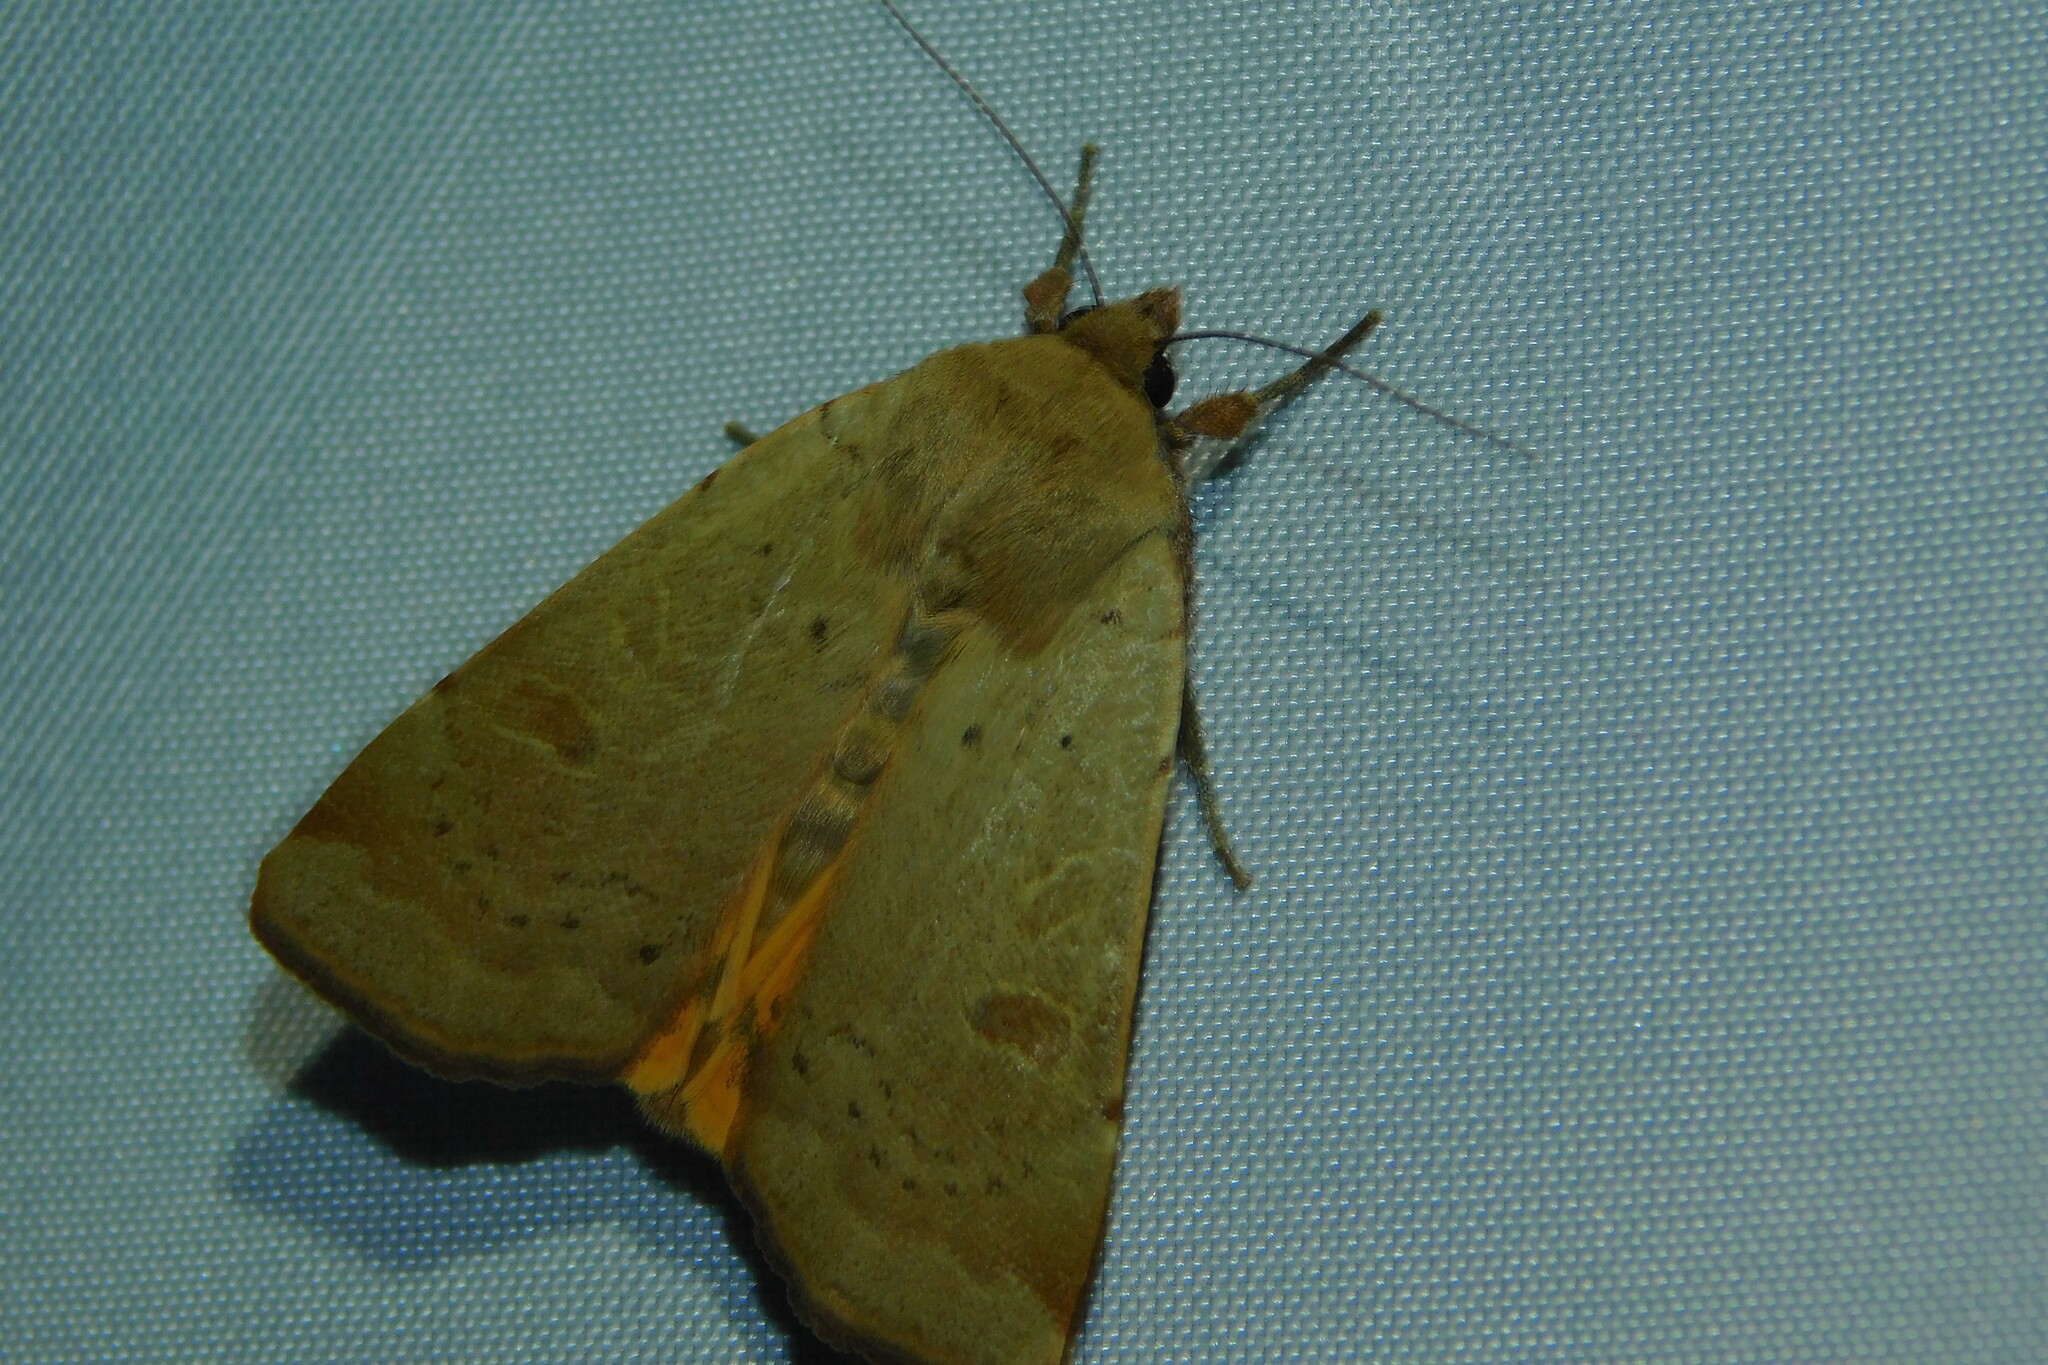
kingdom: Animalia
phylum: Arthropoda
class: Insecta
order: Lepidoptera
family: Noctuidae
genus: Noctua
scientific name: Noctua comes
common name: Lesser yellow underwing
